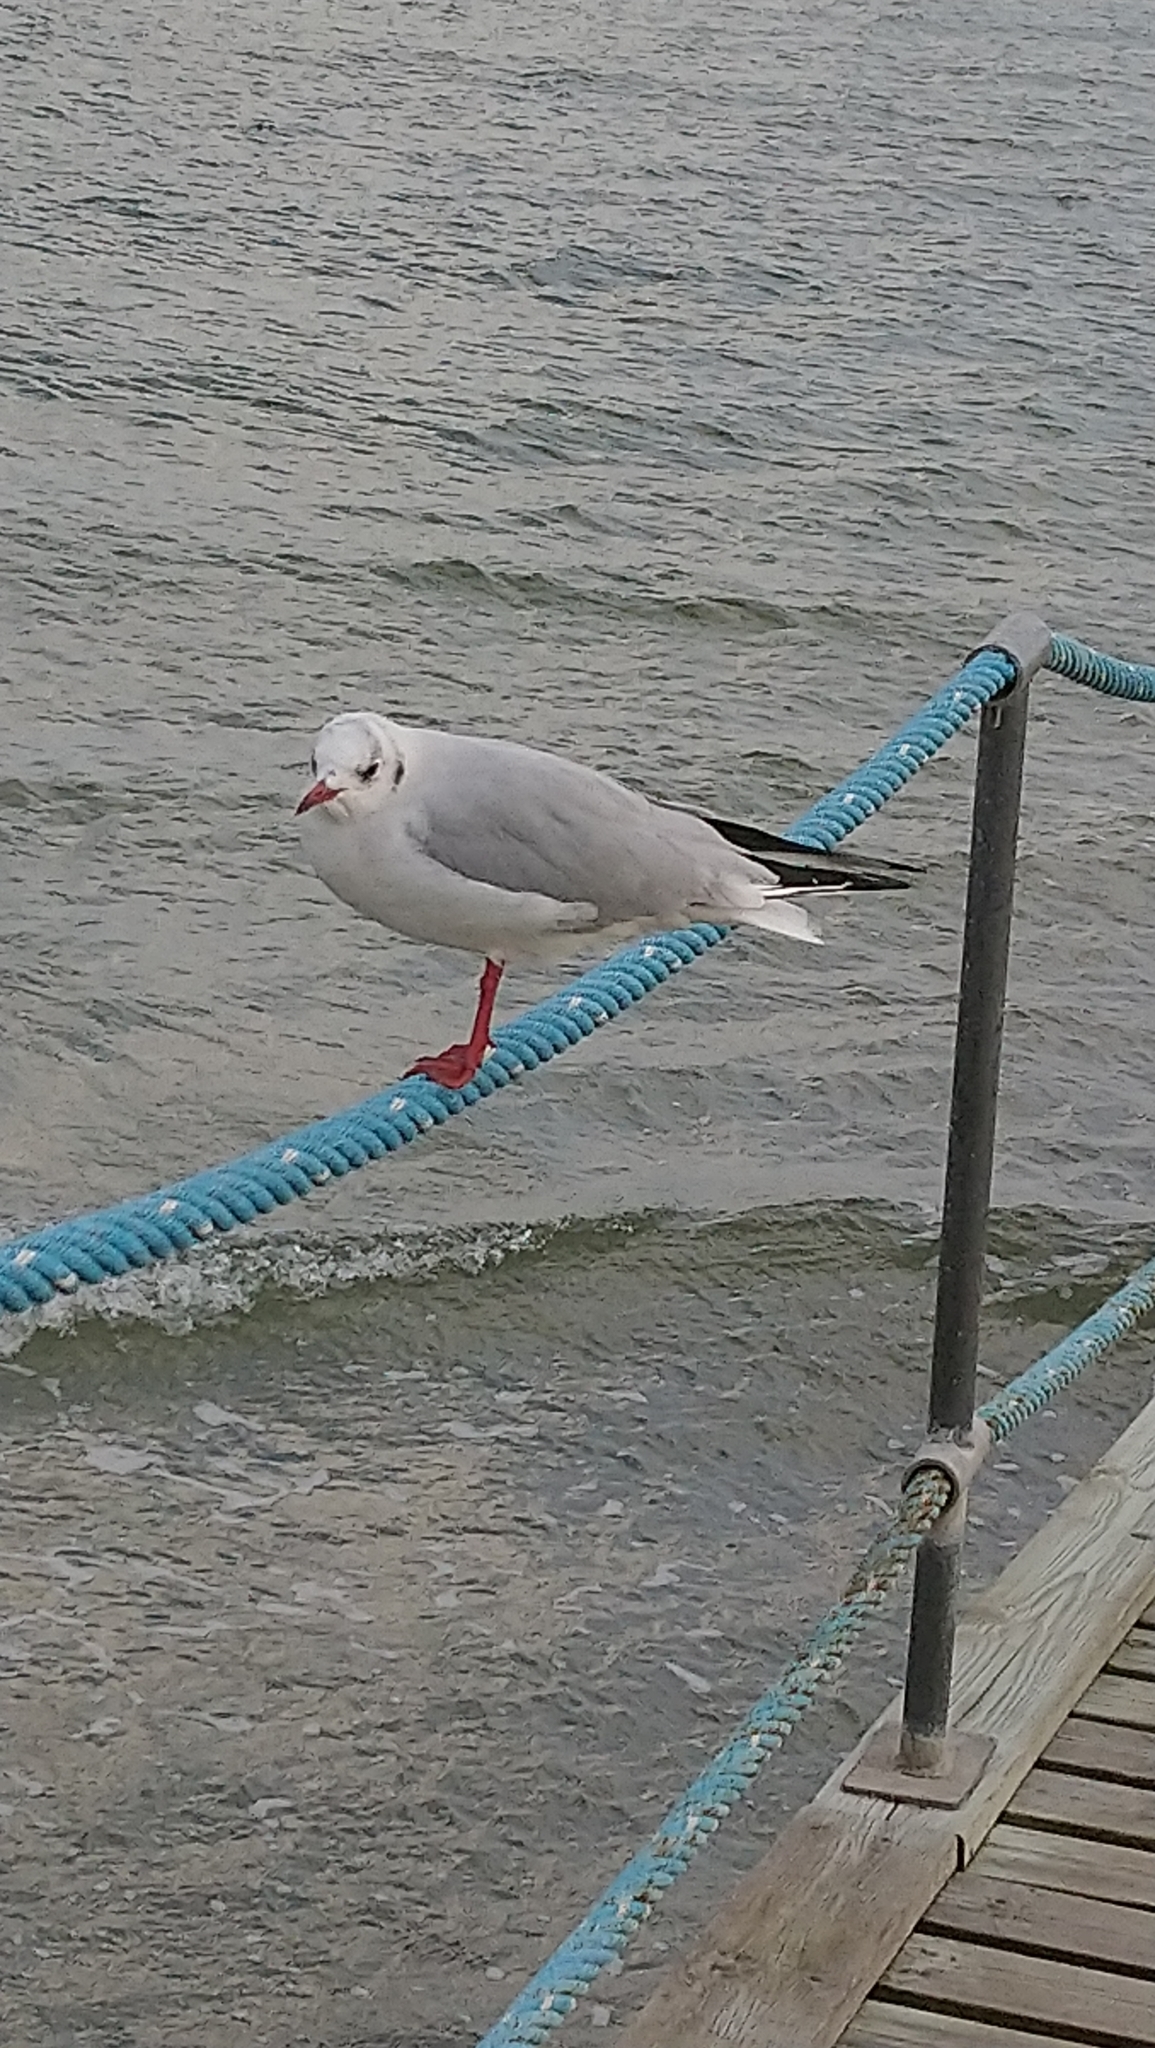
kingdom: Animalia
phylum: Chordata
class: Aves
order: Charadriiformes
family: Laridae
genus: Chroicocephalus
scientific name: Chroicocephalus ridibundus
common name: Black-headed gull
